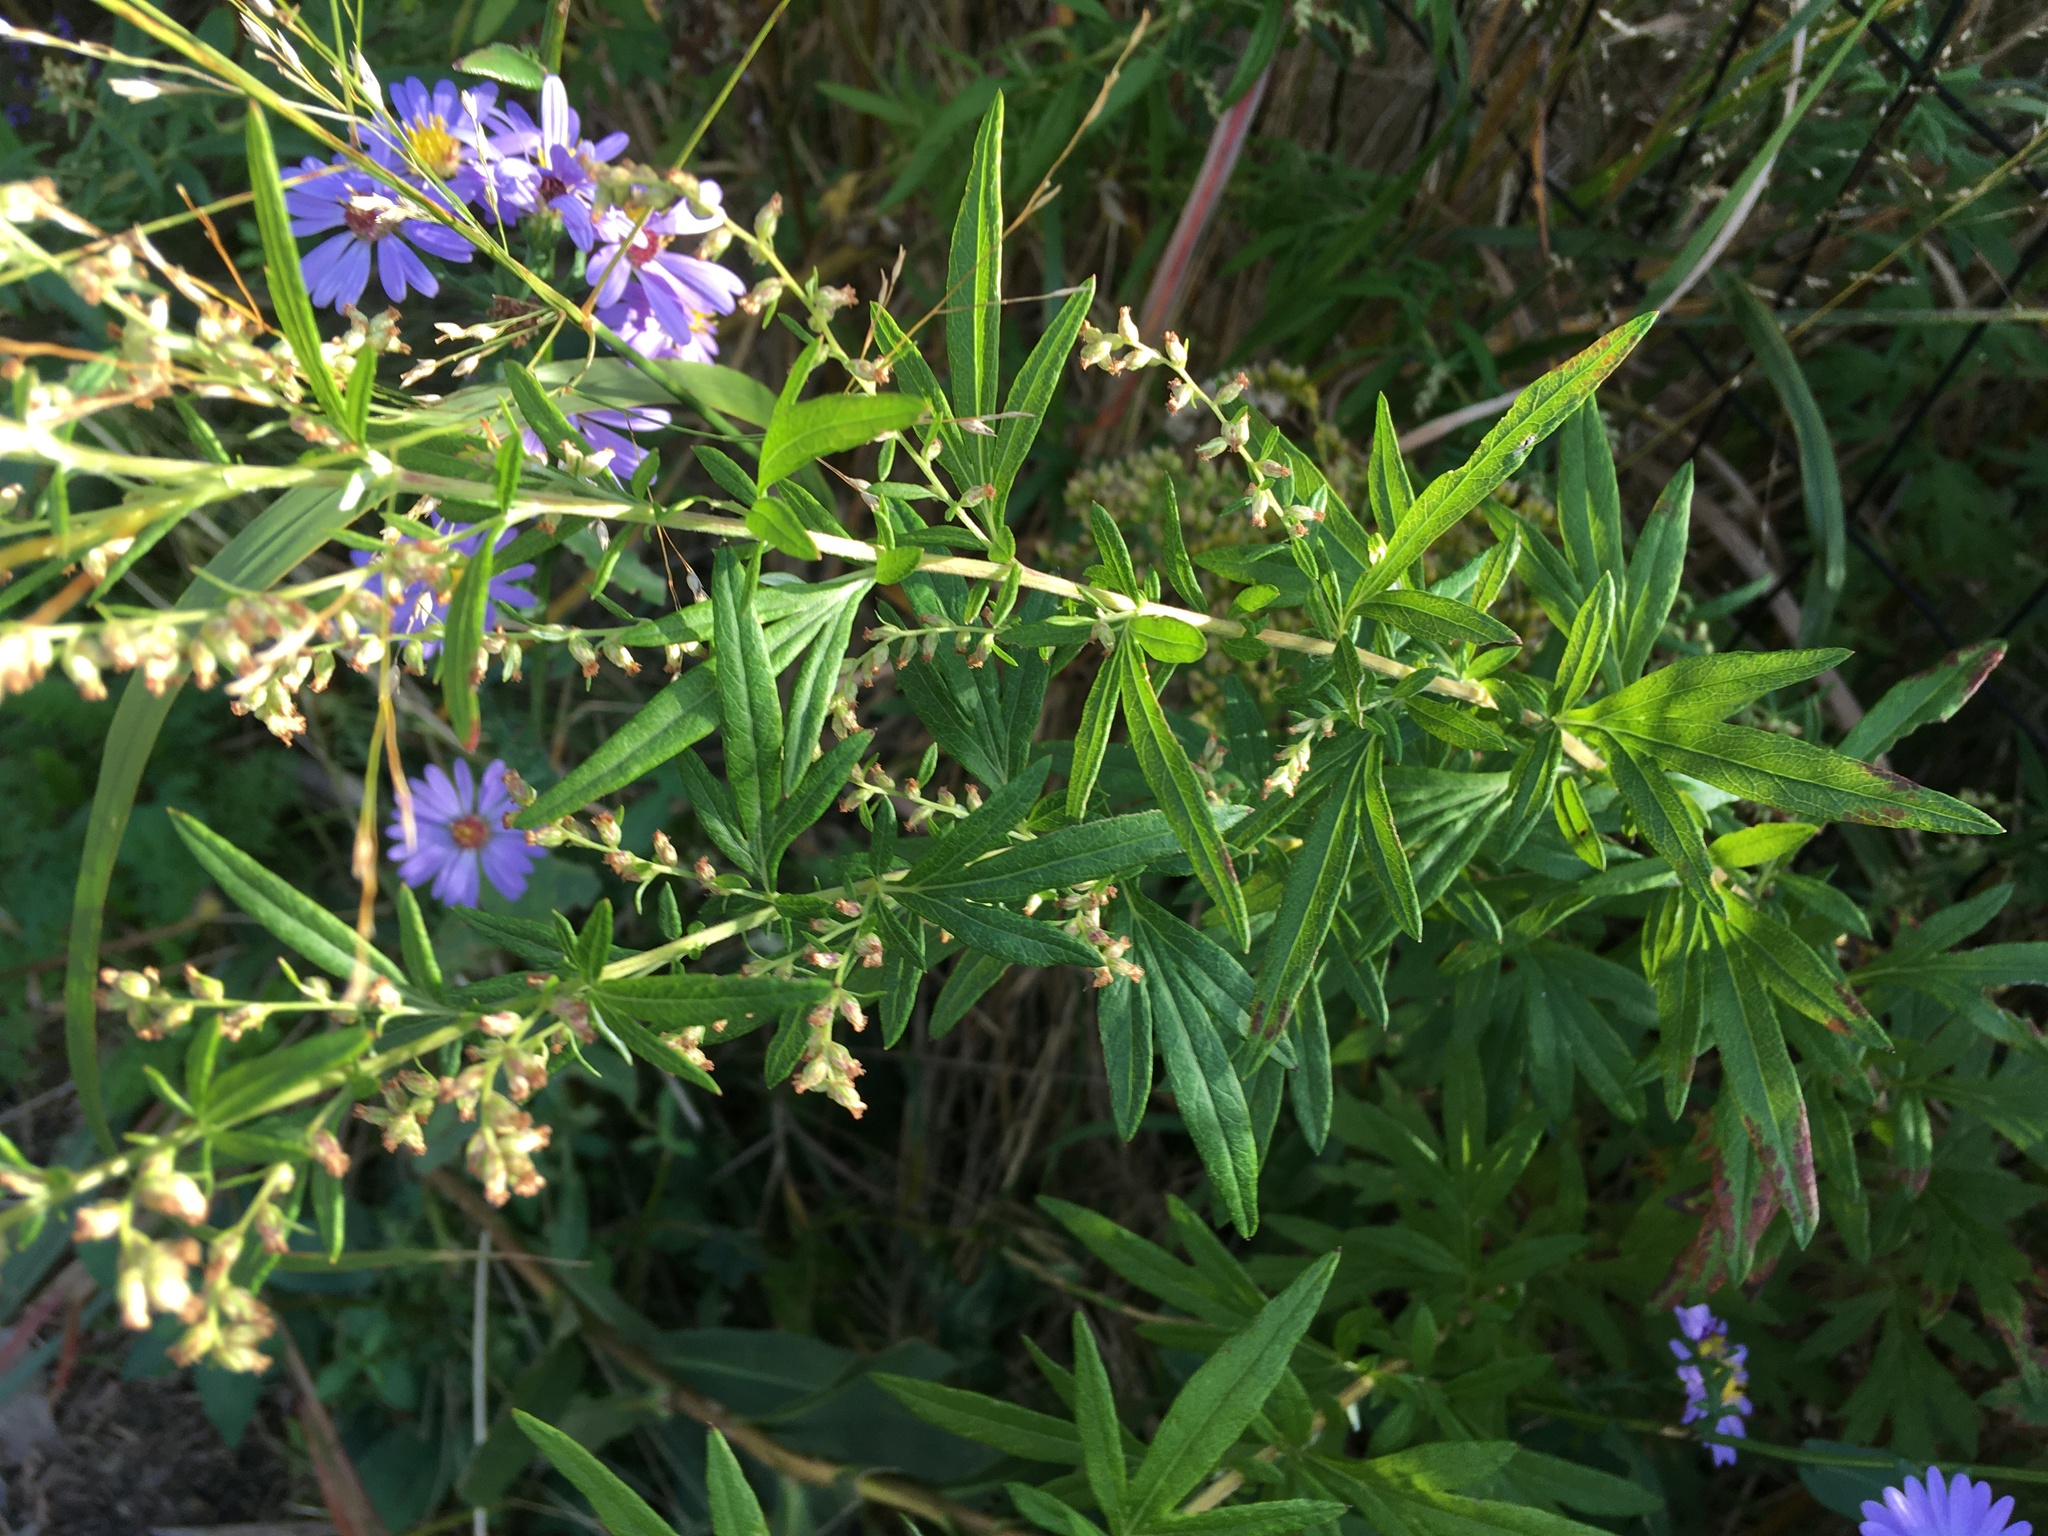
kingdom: Plantae
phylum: Tracheophyta
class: Magnoliopsida
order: Asterales
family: Asteraceae
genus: Artemisia
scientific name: Artemisia vulgaris
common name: Mugwort
